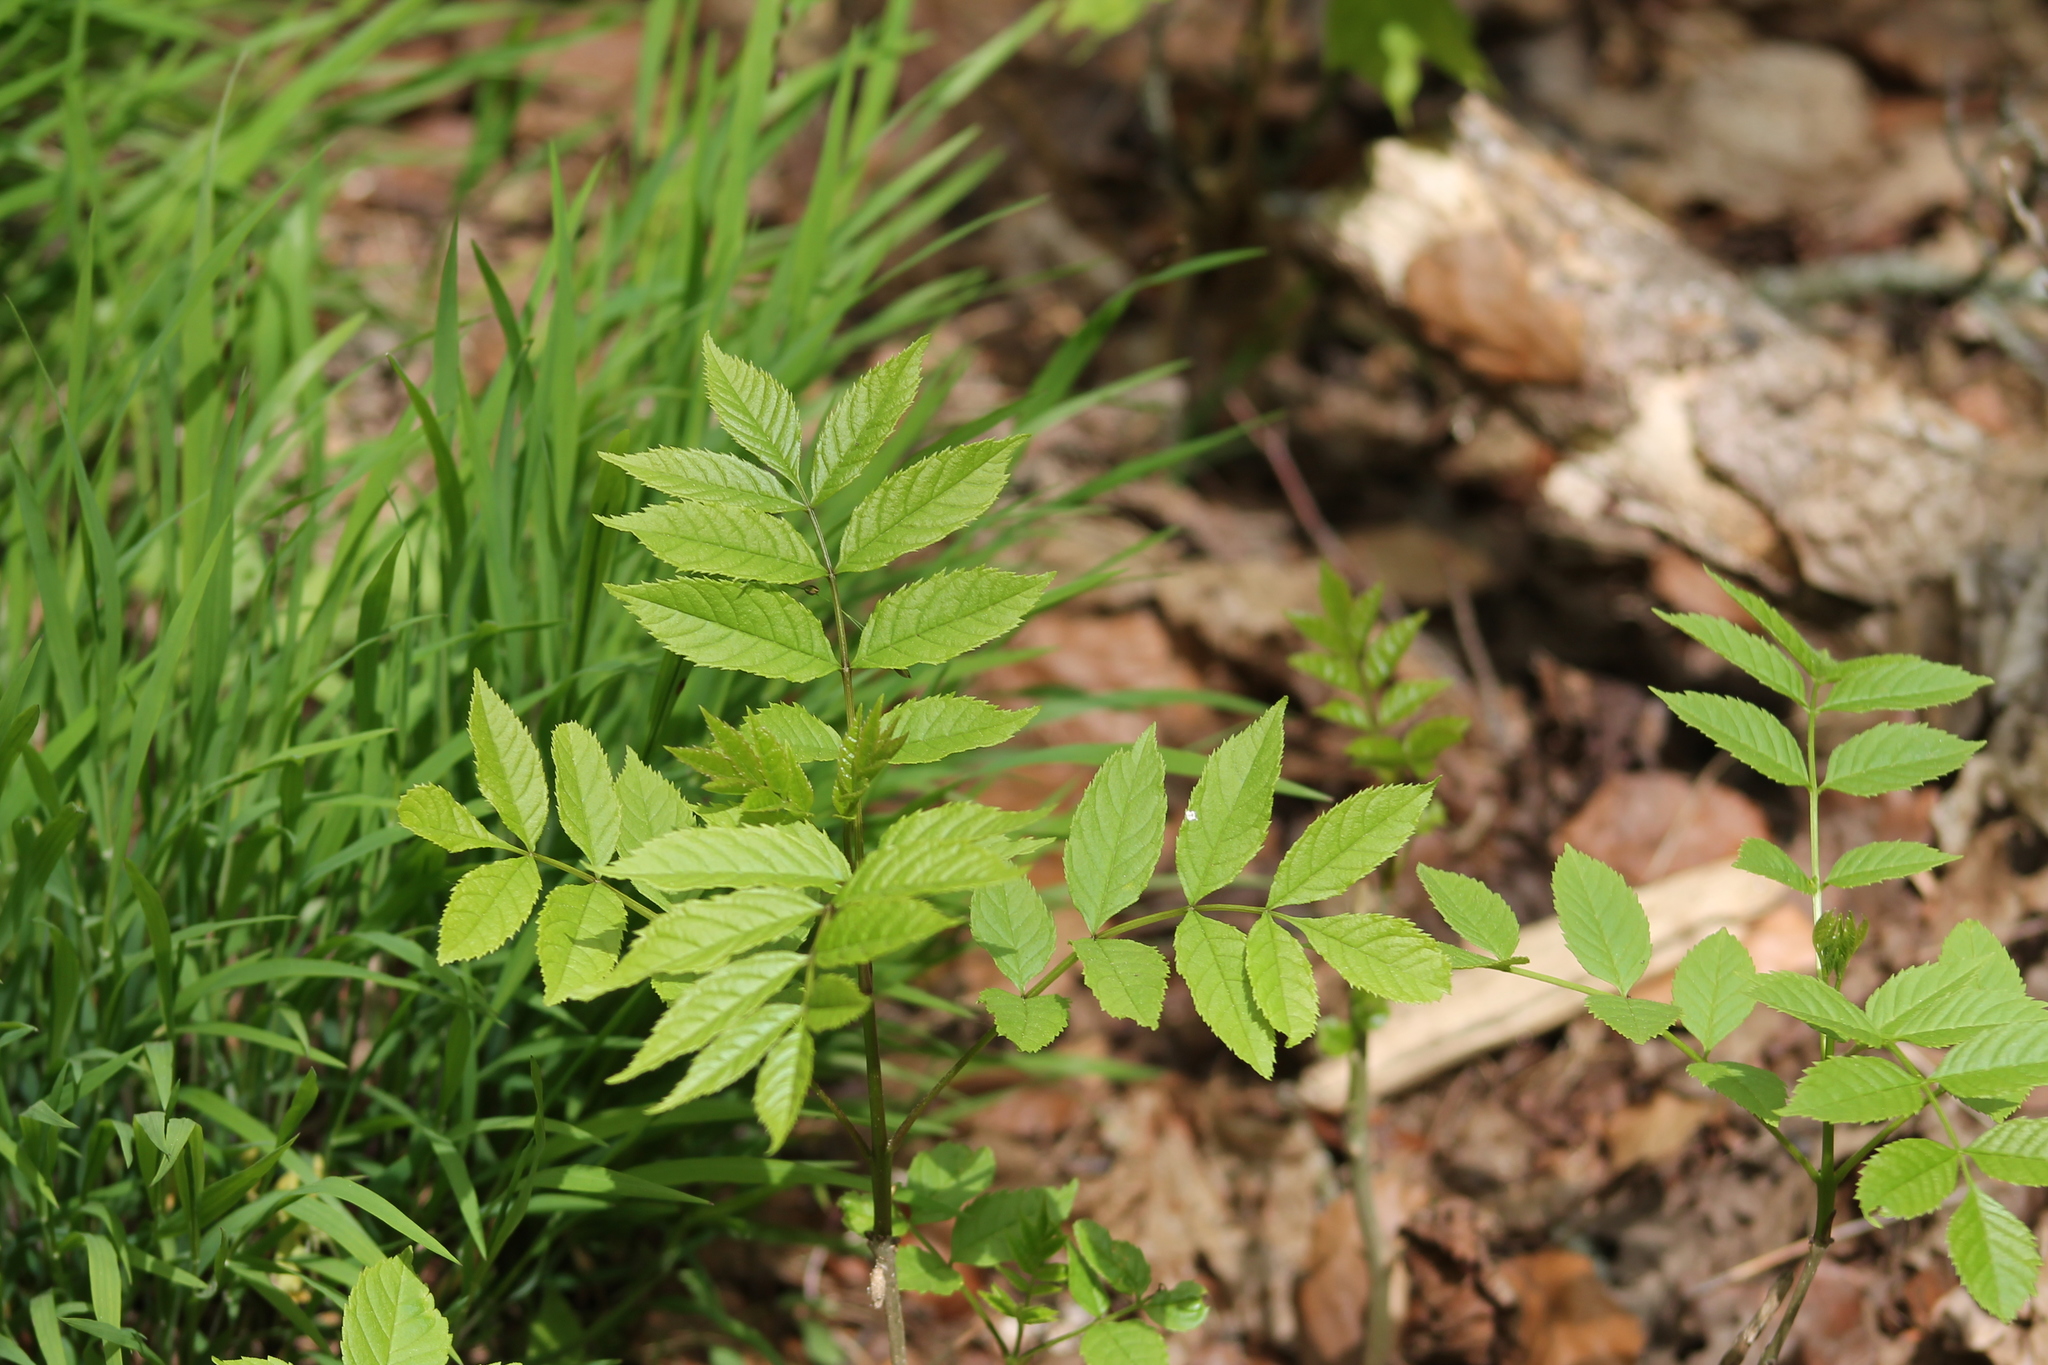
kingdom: Plantae
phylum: Tracheophyta
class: Magnoliopsida
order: Lamiales
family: Oleaceae
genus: Fraxinus
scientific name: Fraxinus excelsior
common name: European ash
